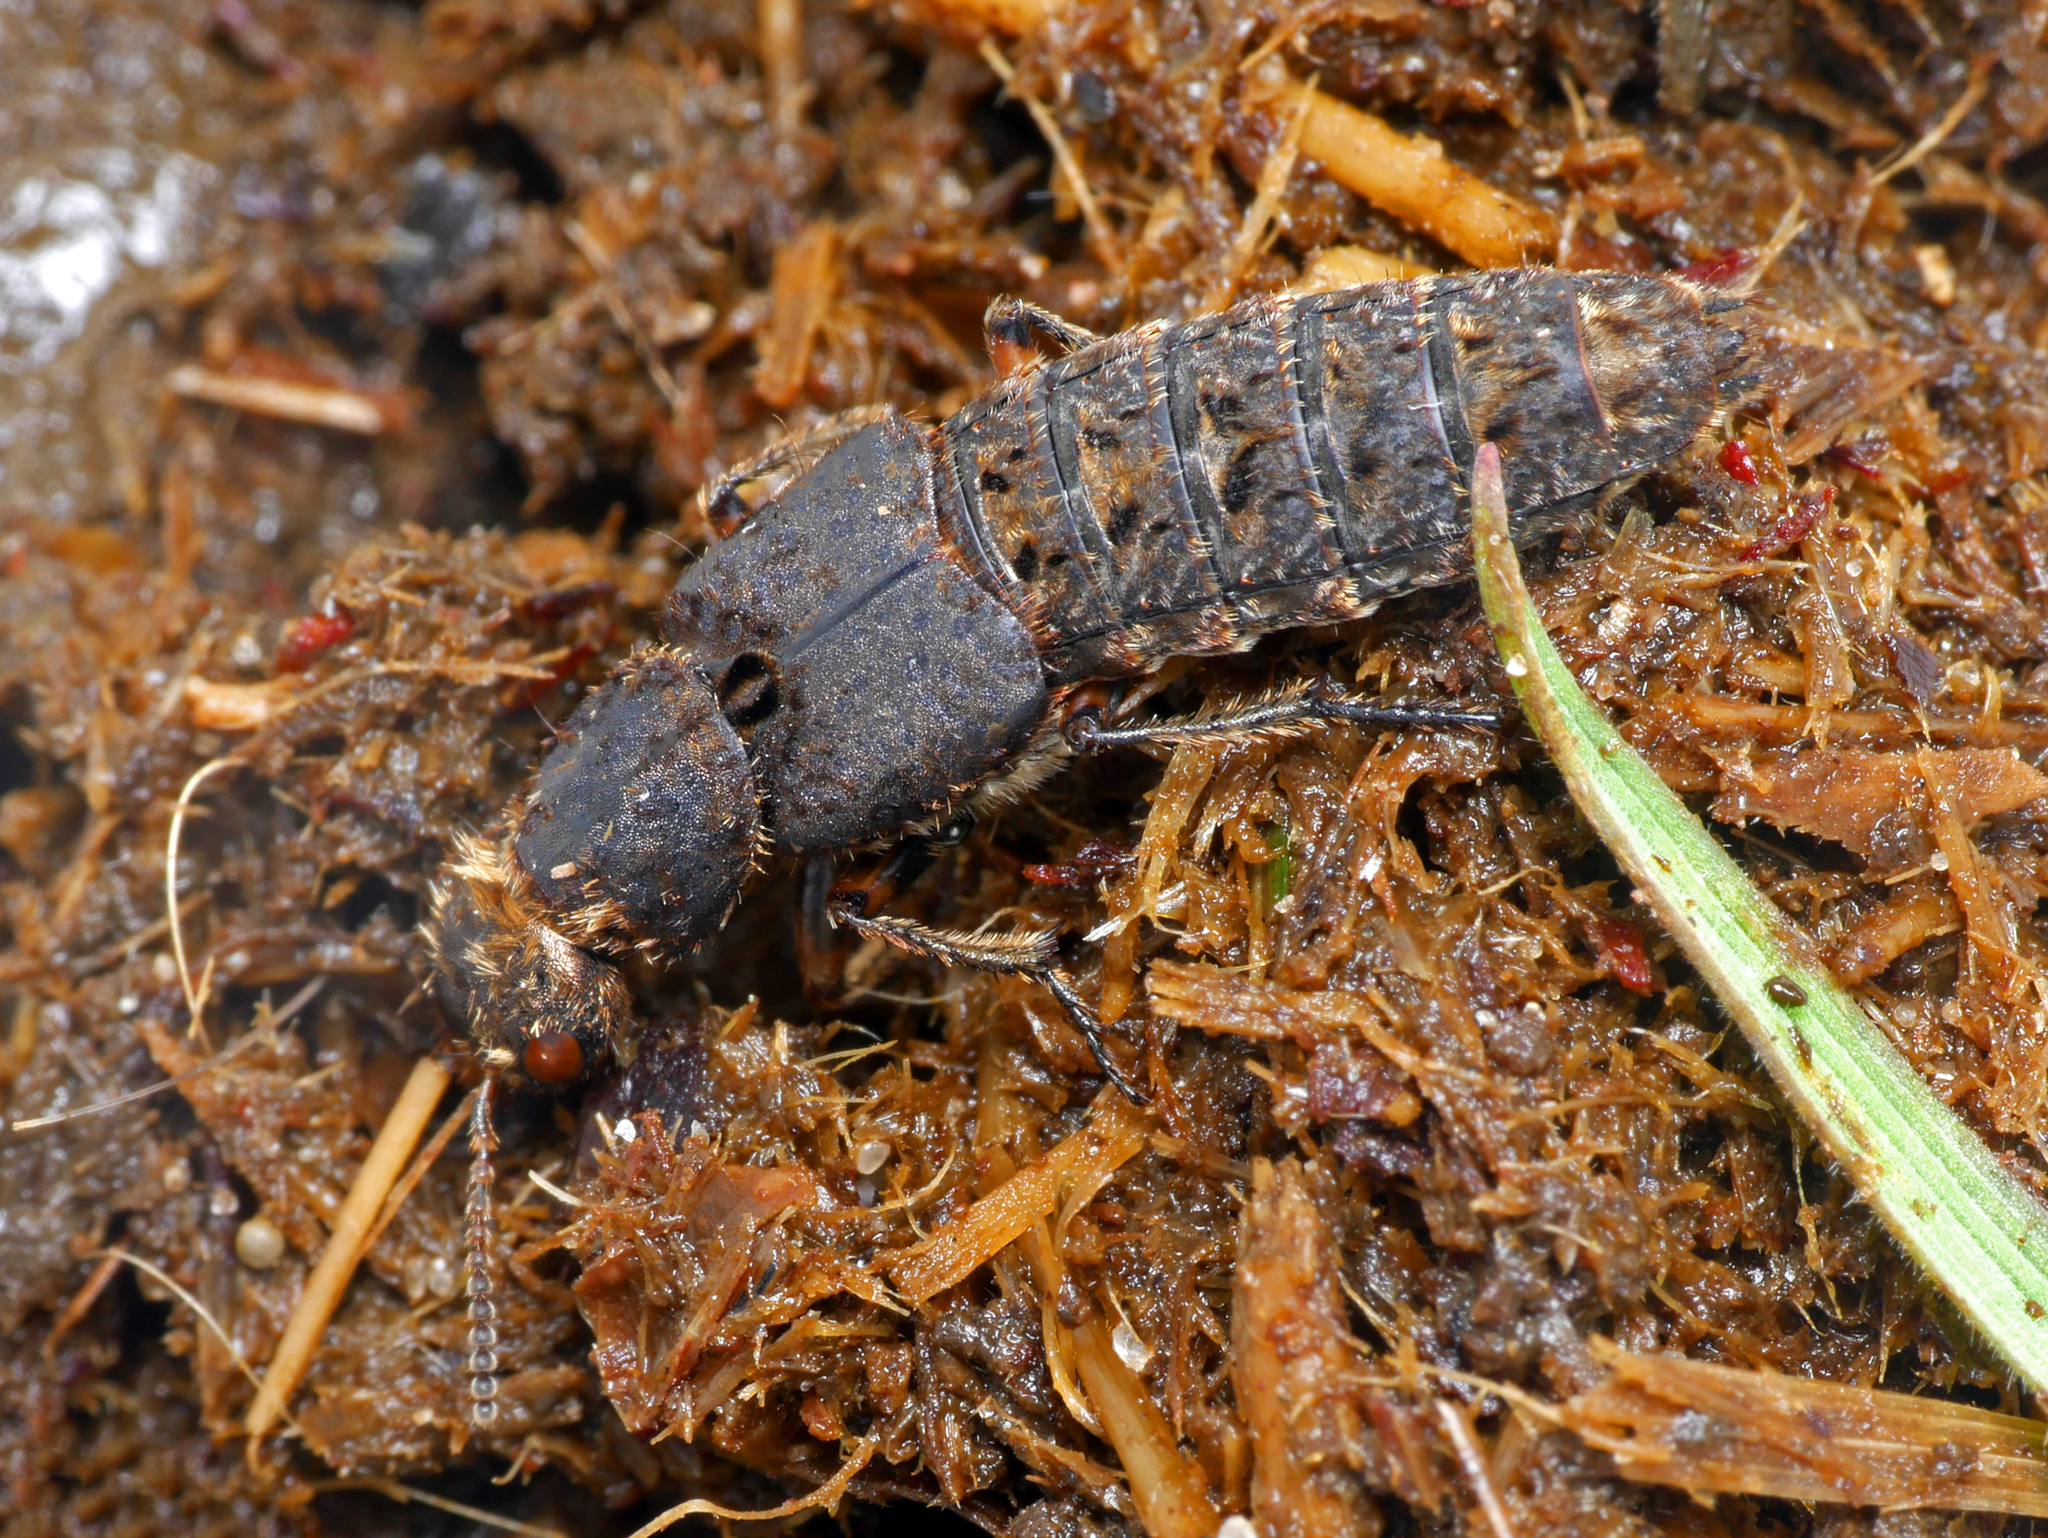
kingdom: Animalia
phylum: Arthropoda
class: Insecta
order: Coleoptera
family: Staphylinidae
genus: Dinothenarus
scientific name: Dinothenarus pubescens
